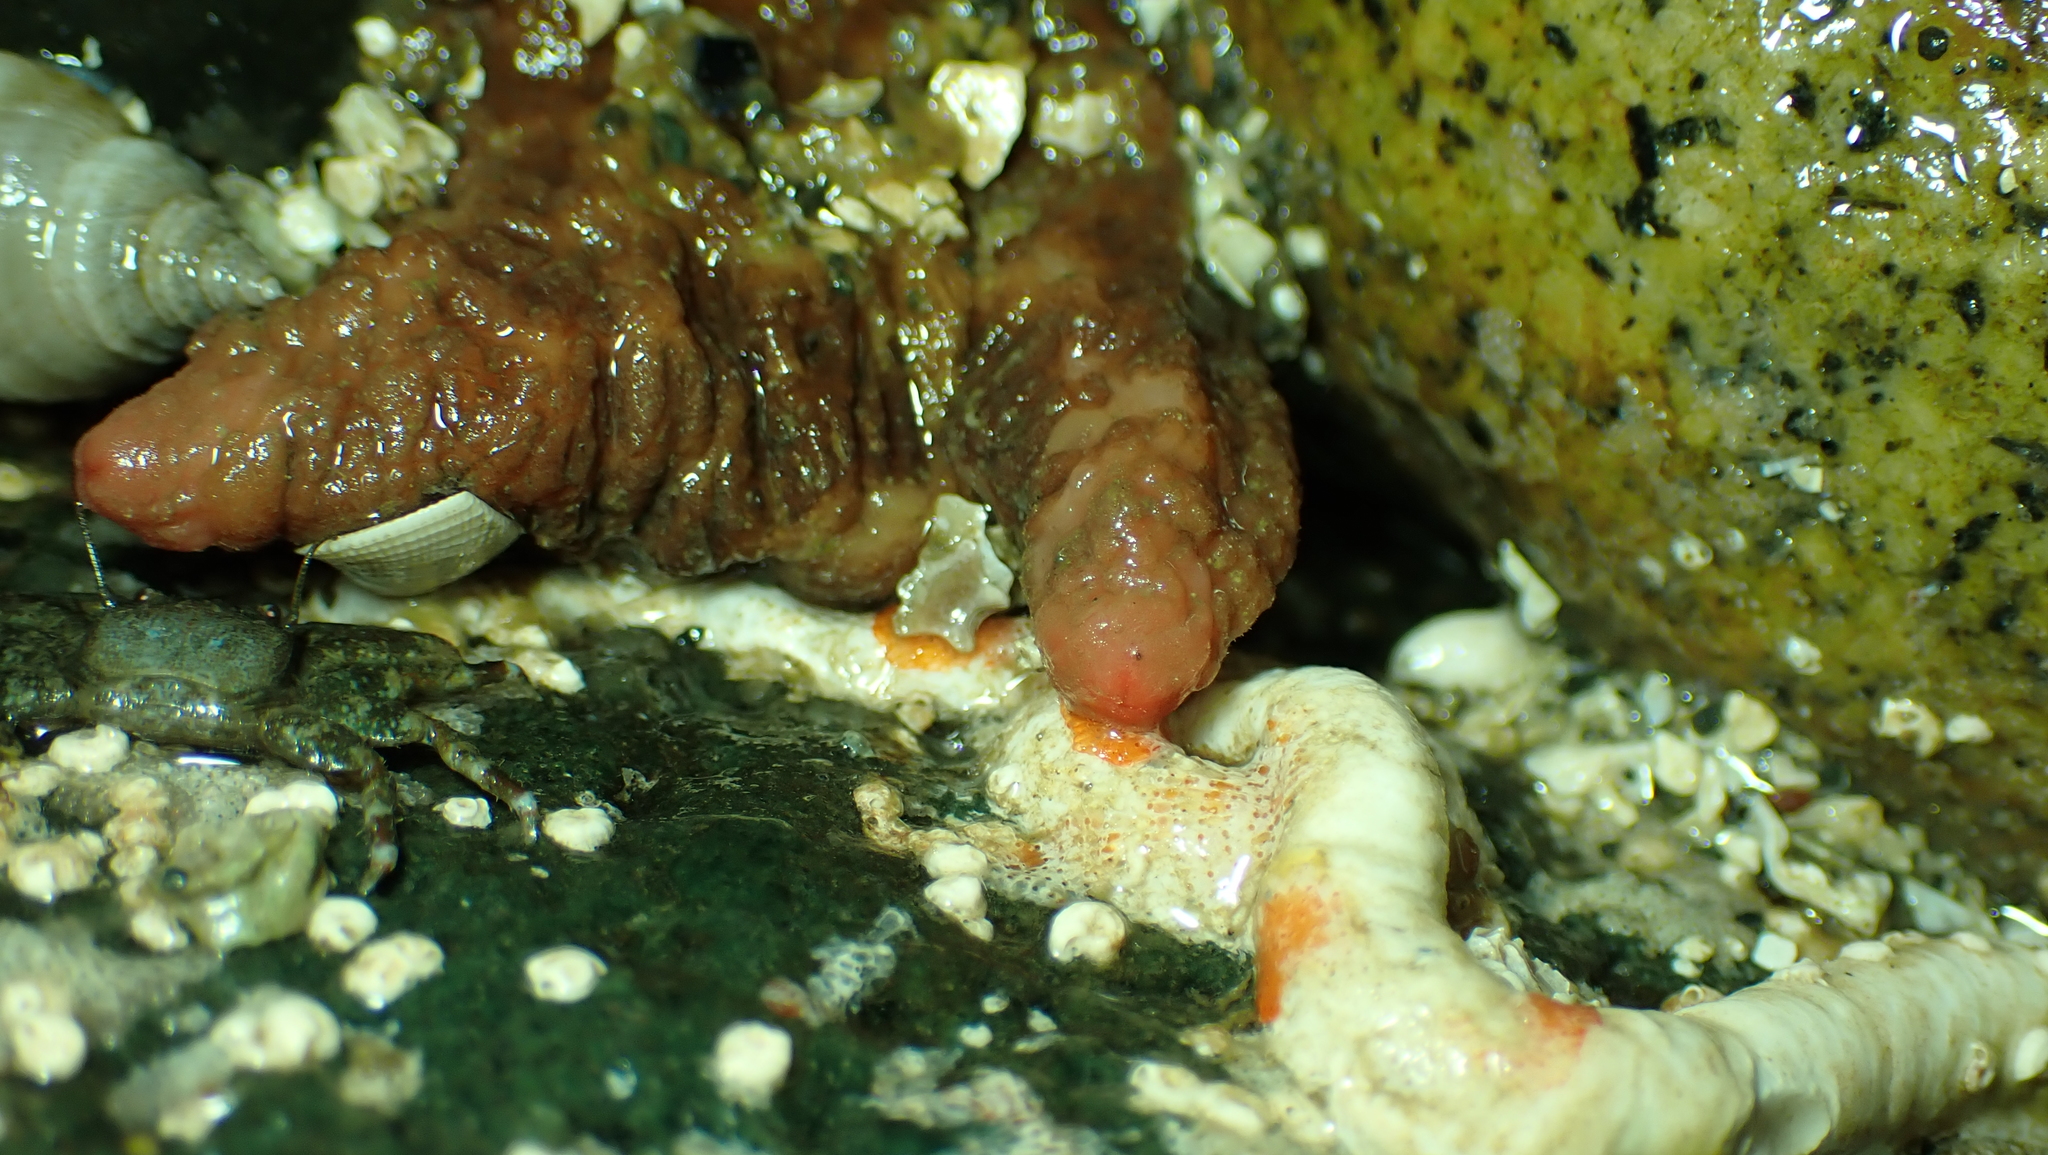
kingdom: Animalia
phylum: Chordata
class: Ascidiacea
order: Stolidobranchia
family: Pyuridae
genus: Pyura
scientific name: Pyura haustor
